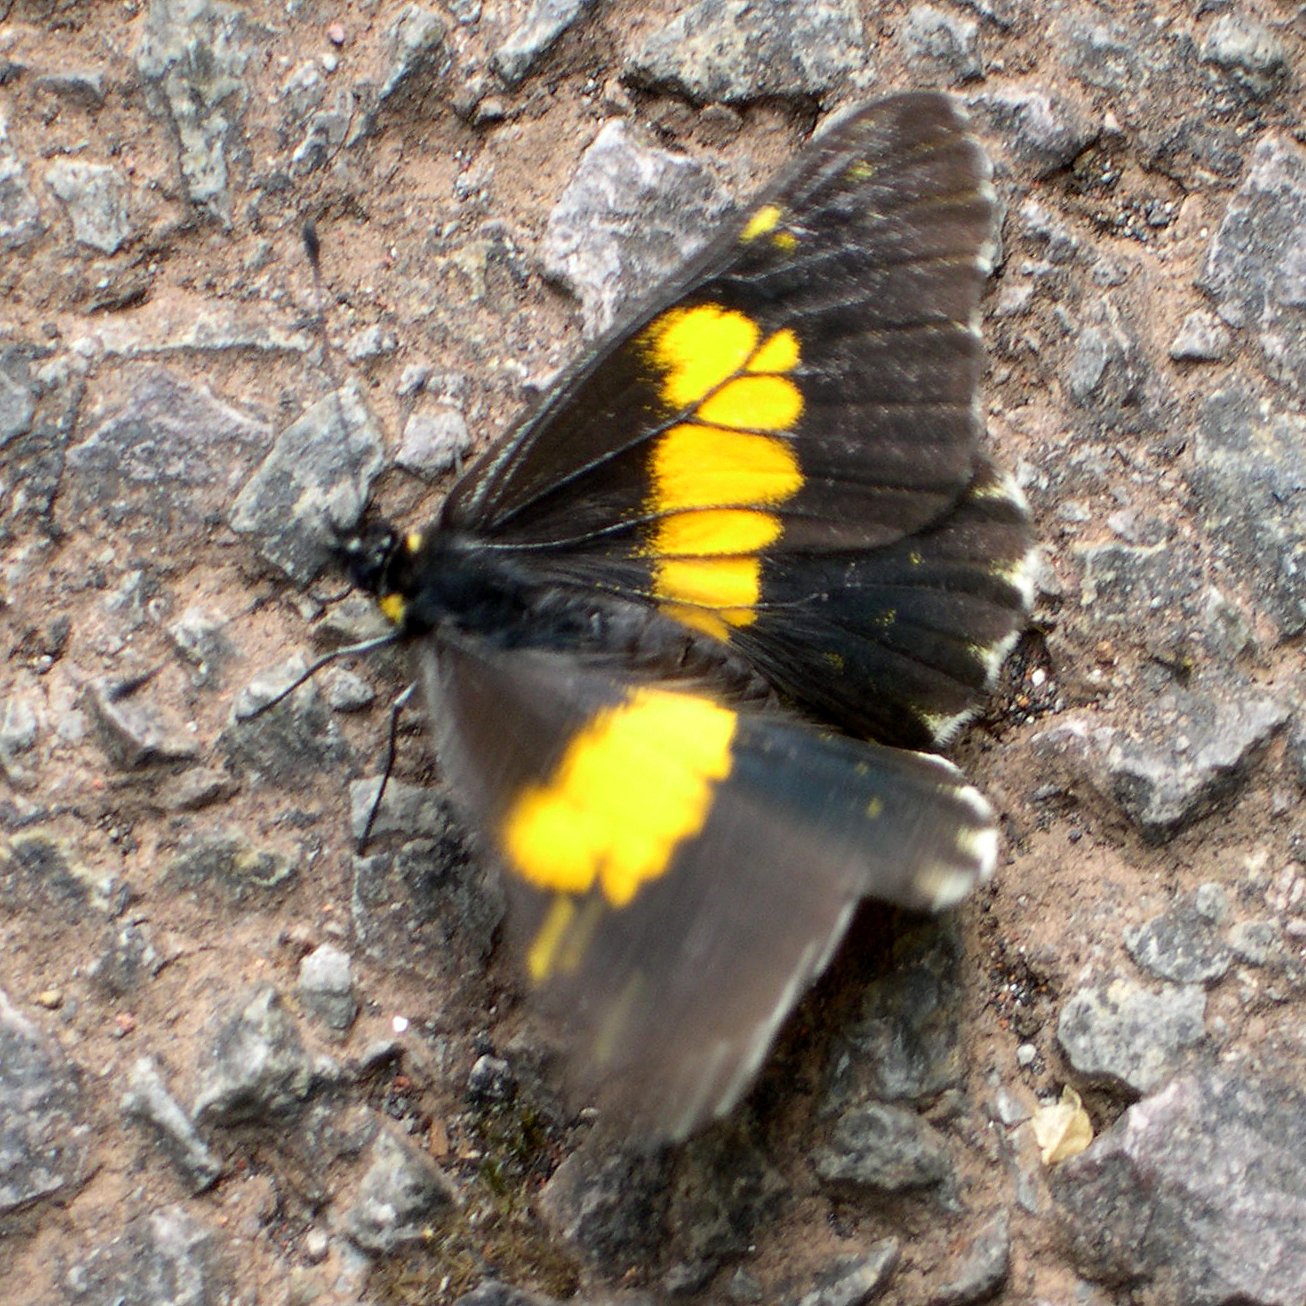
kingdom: Animalia
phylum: Arthropoda
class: Insecta
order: Lepidoptera
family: Pieridae
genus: Archonias
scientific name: Archonias teutila
